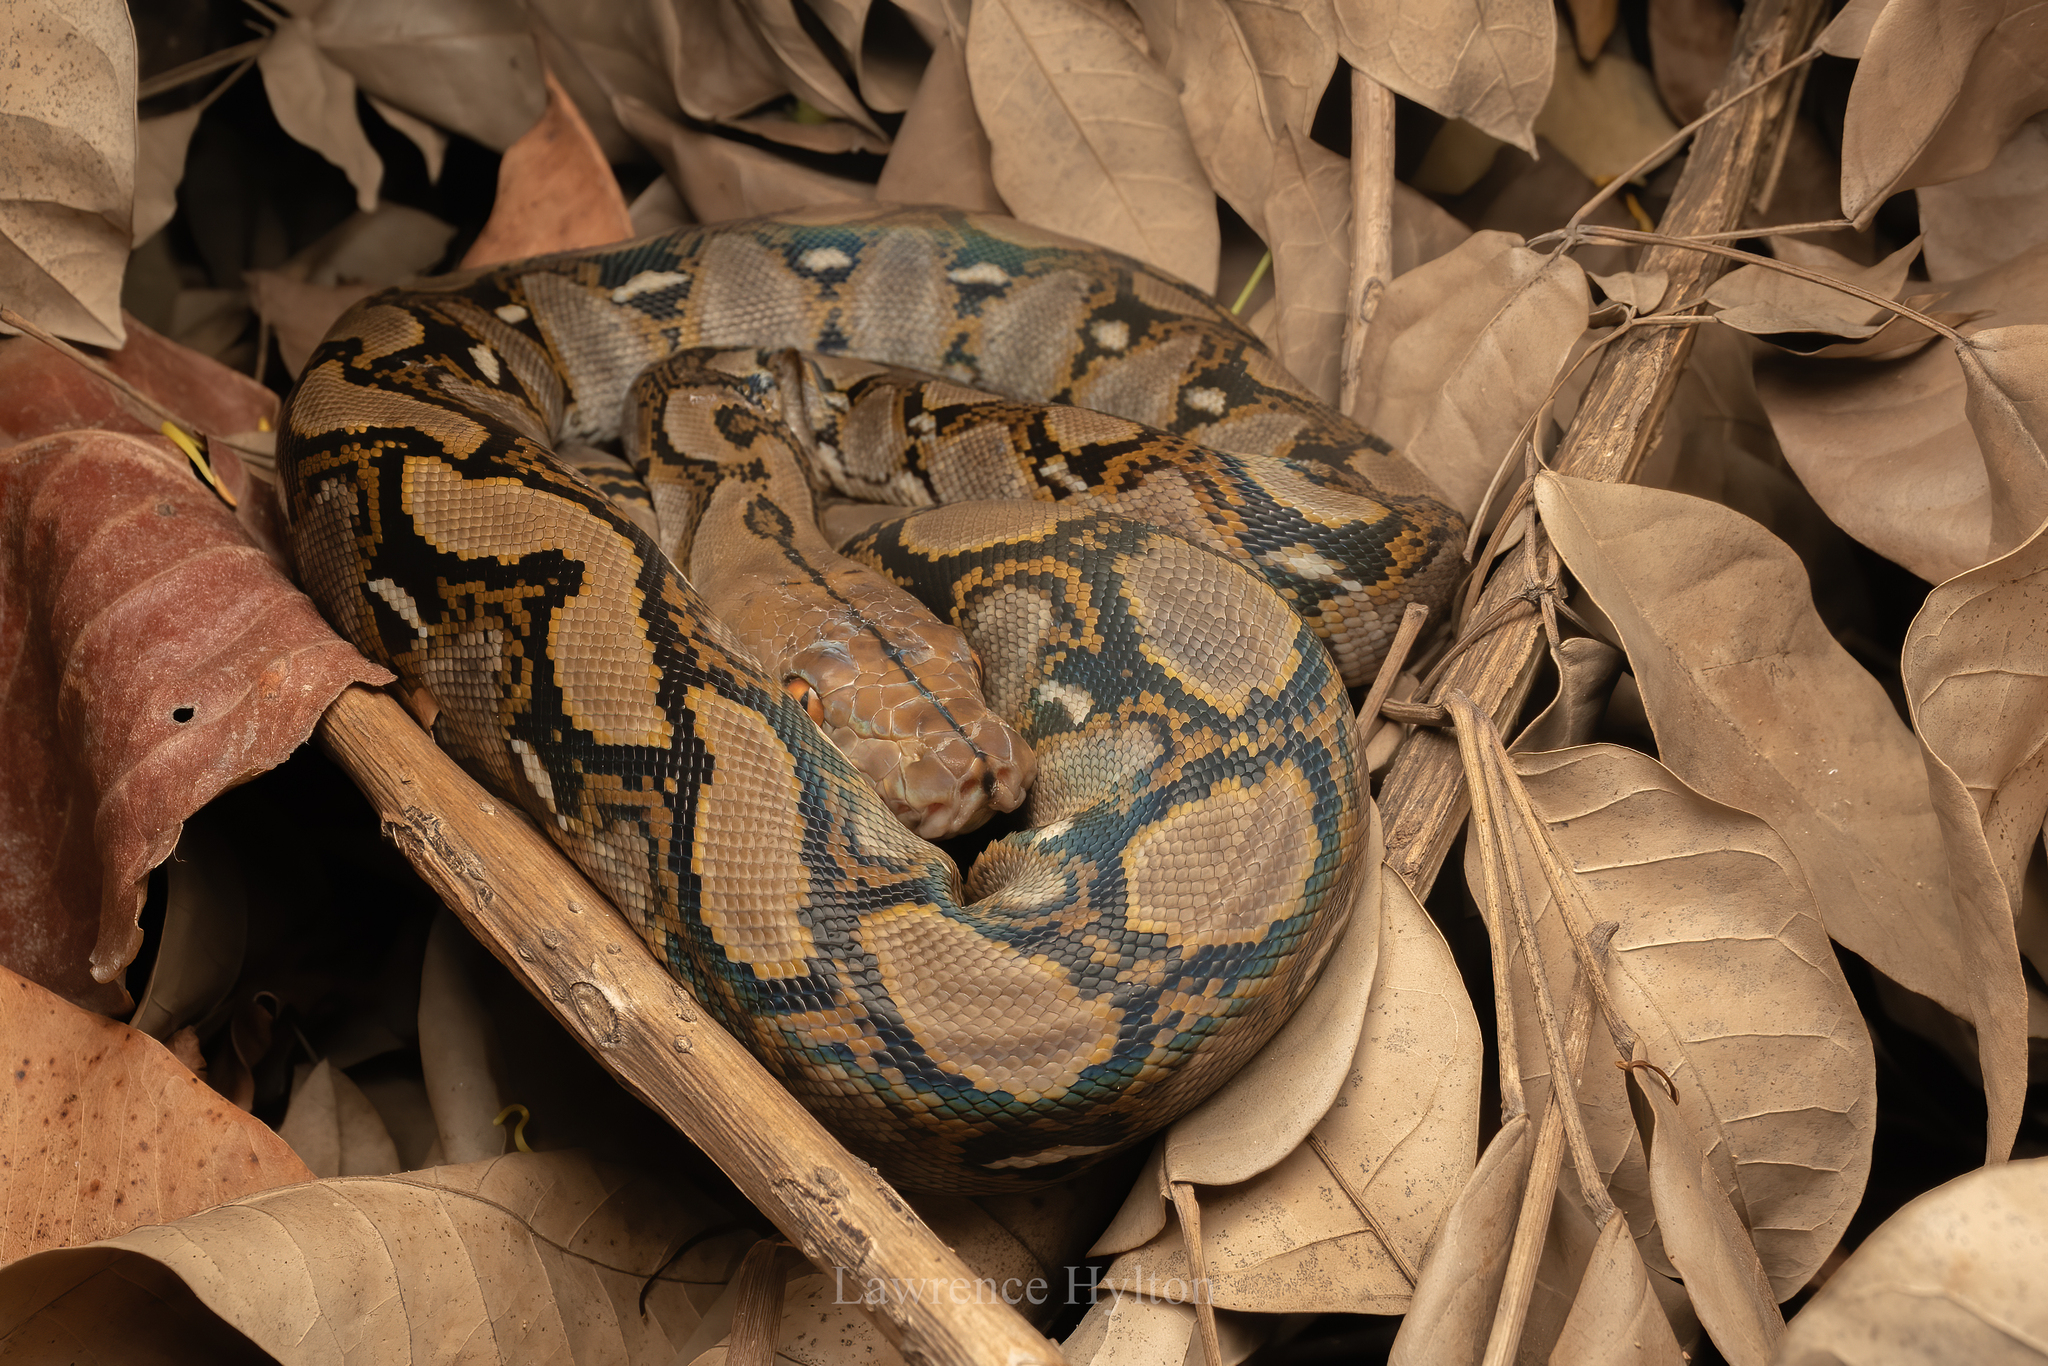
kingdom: Animalia
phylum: Chordata
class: Squamata
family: Pythonidae
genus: Malayopython
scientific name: Malayopython reticulatus
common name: Reticulated python
